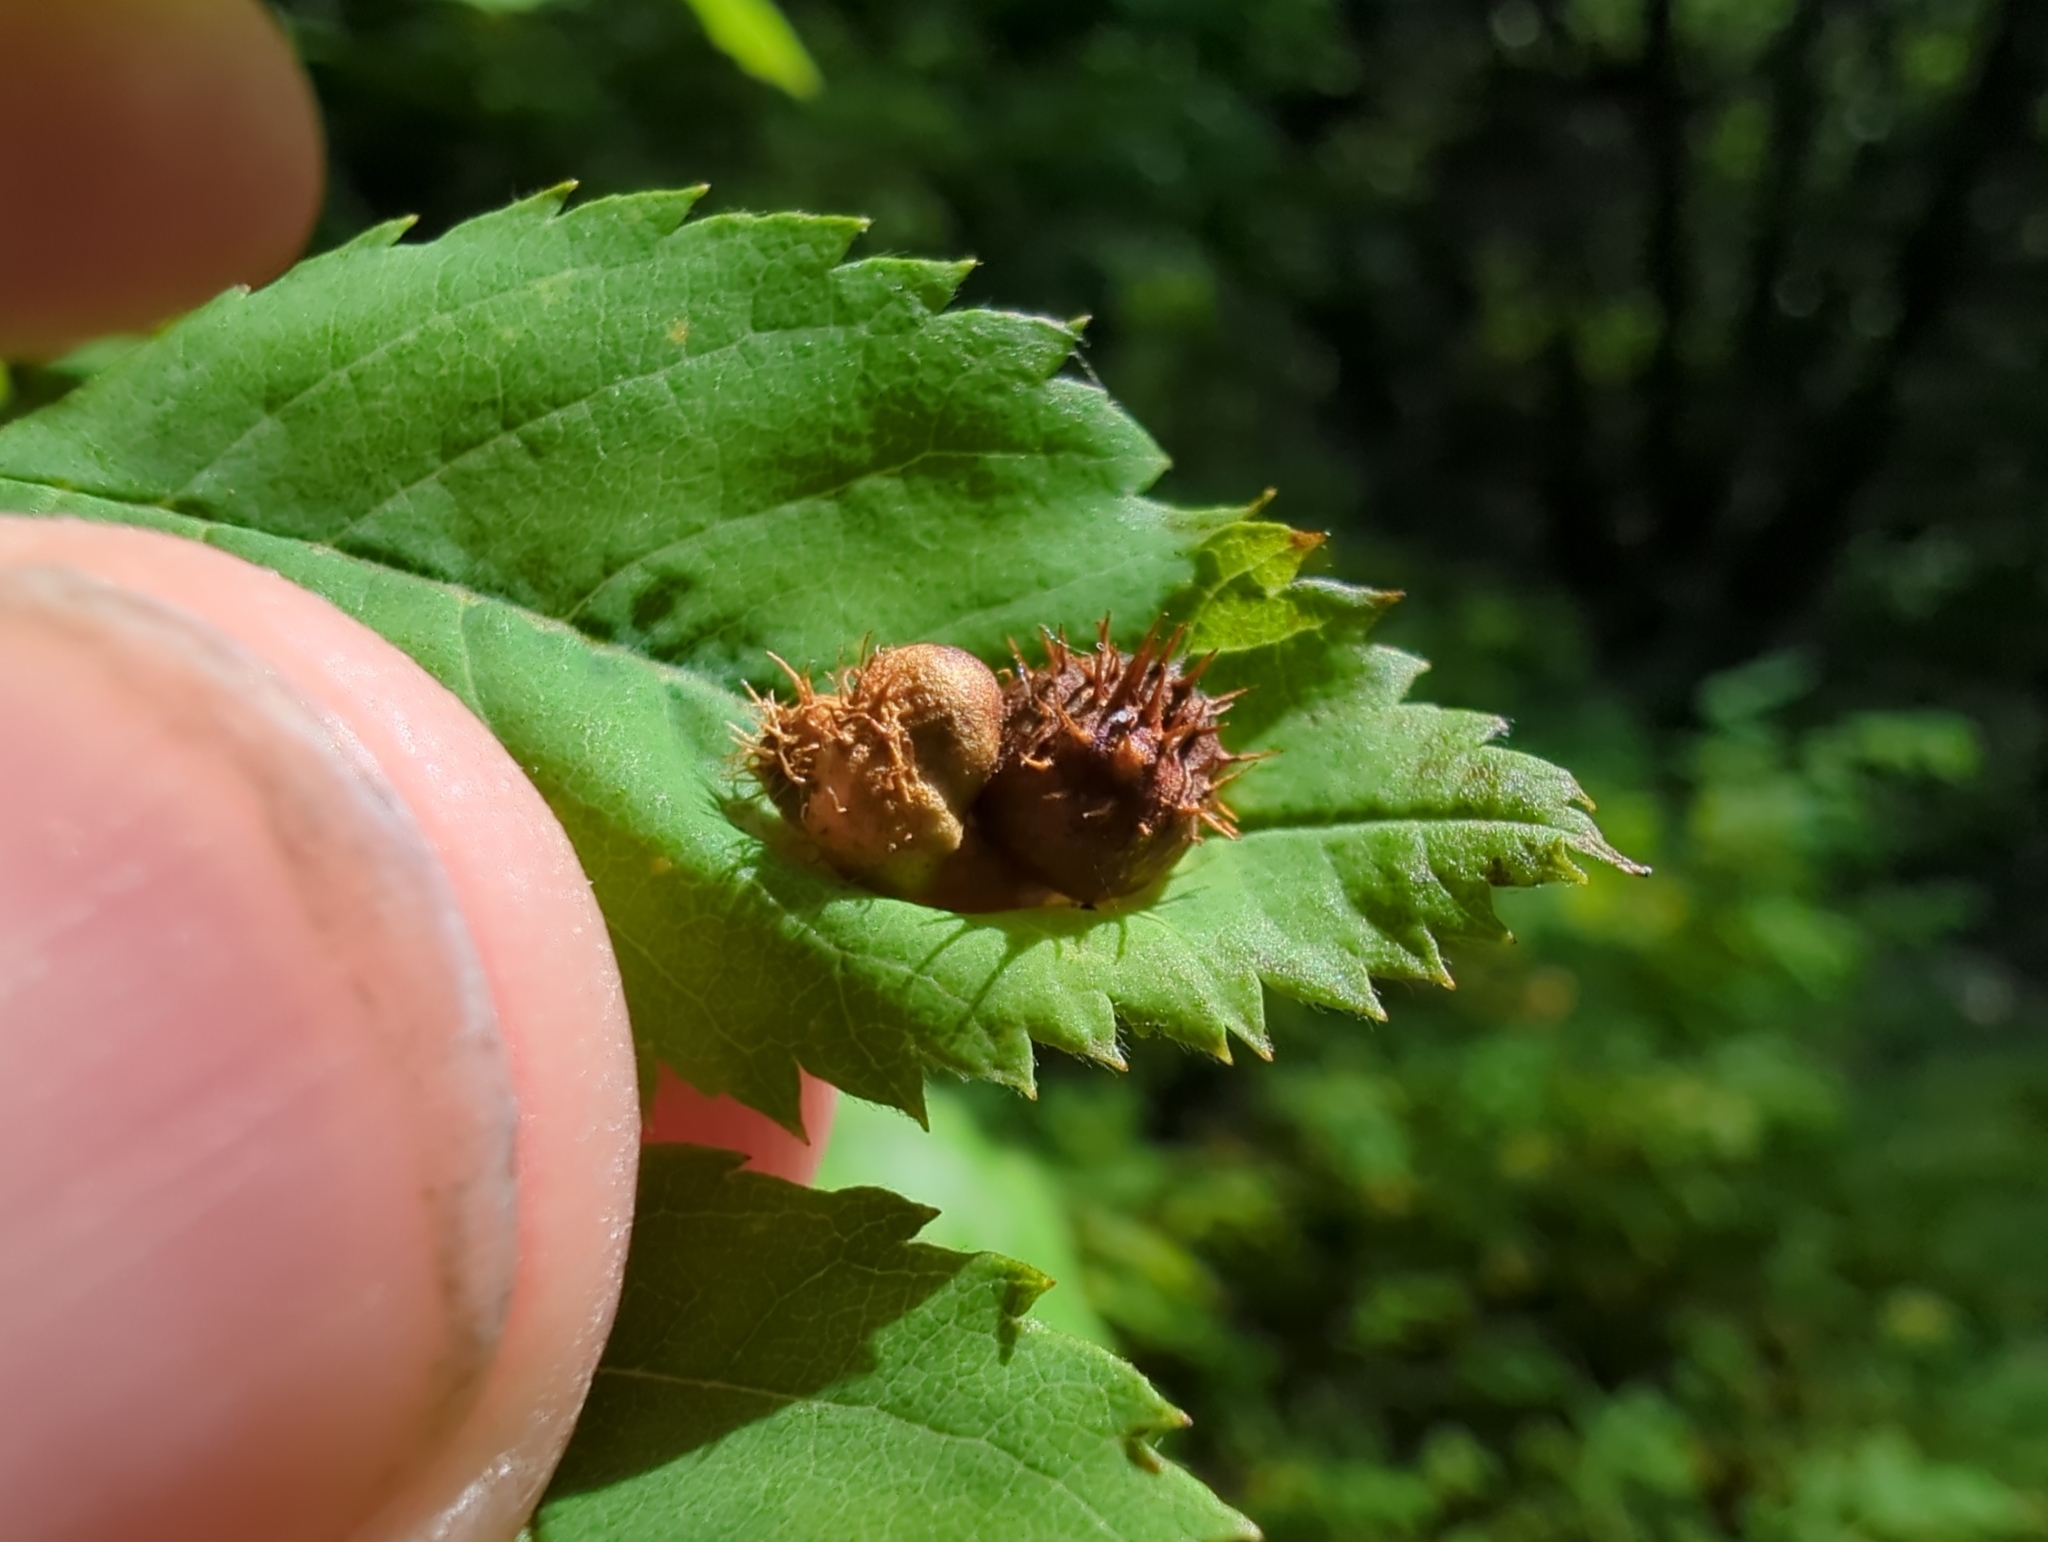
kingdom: Animalia
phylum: Arthropoda
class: Insecta
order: Hymenoptera
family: Cynipidae
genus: Diplolepis
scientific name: Diplolepis polita
